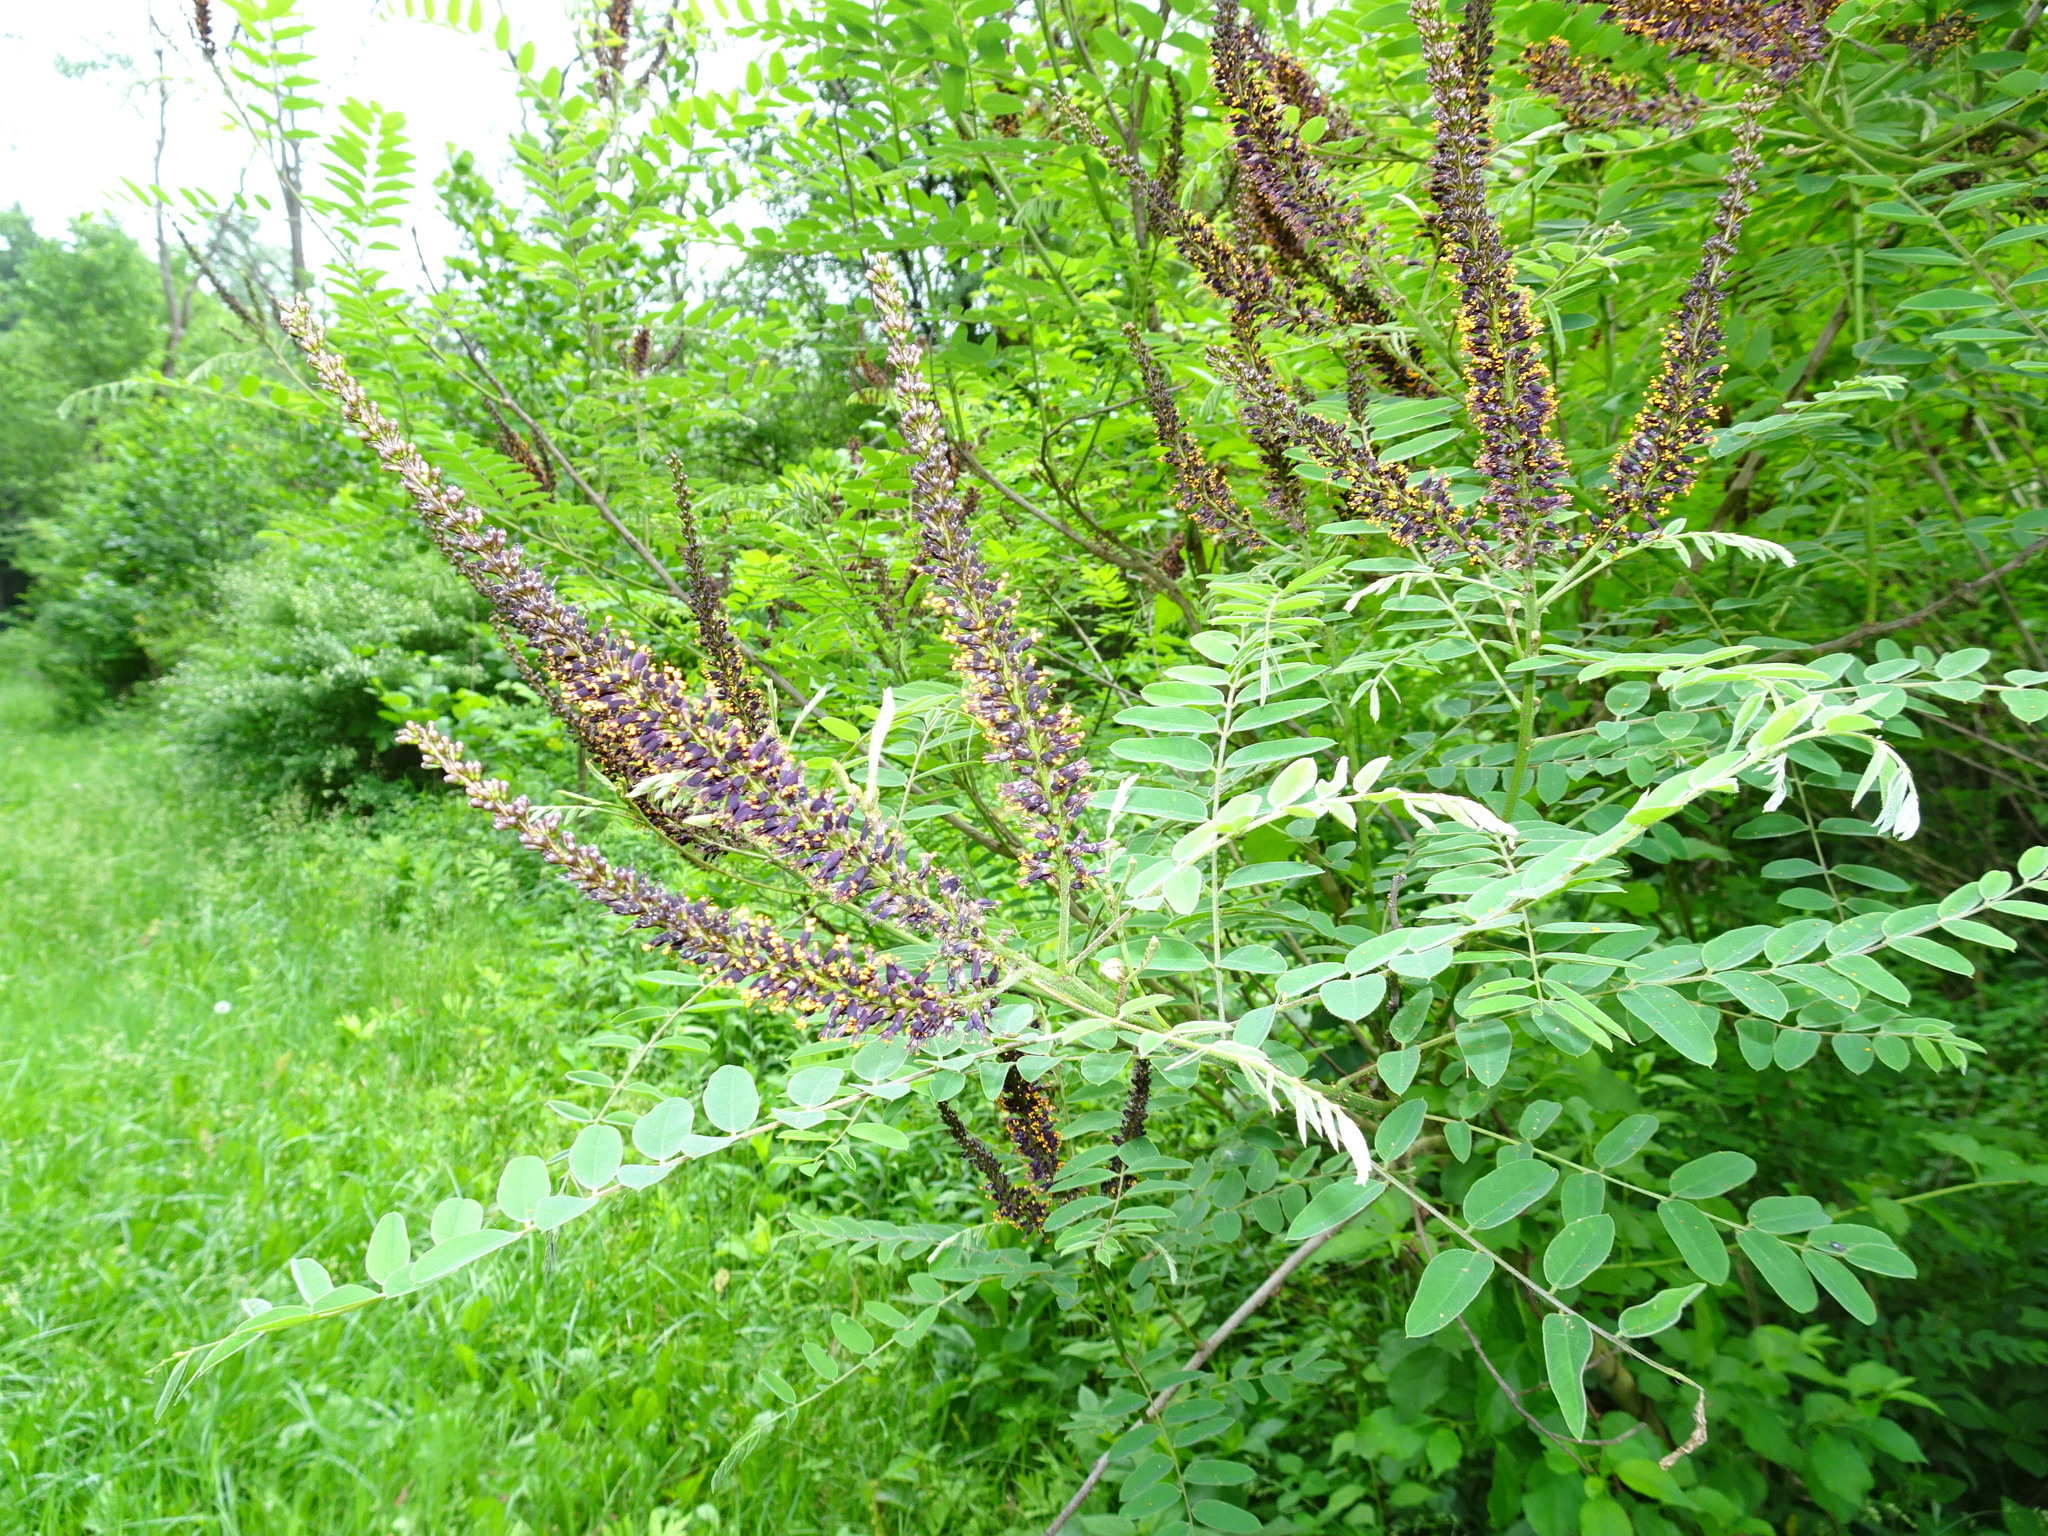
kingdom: Plantae
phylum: Tracheophyta
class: Magnoliopsida
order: Fabales
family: Fabaceae
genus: Amorpha
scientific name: Amorpha fruticosa
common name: False indigo
